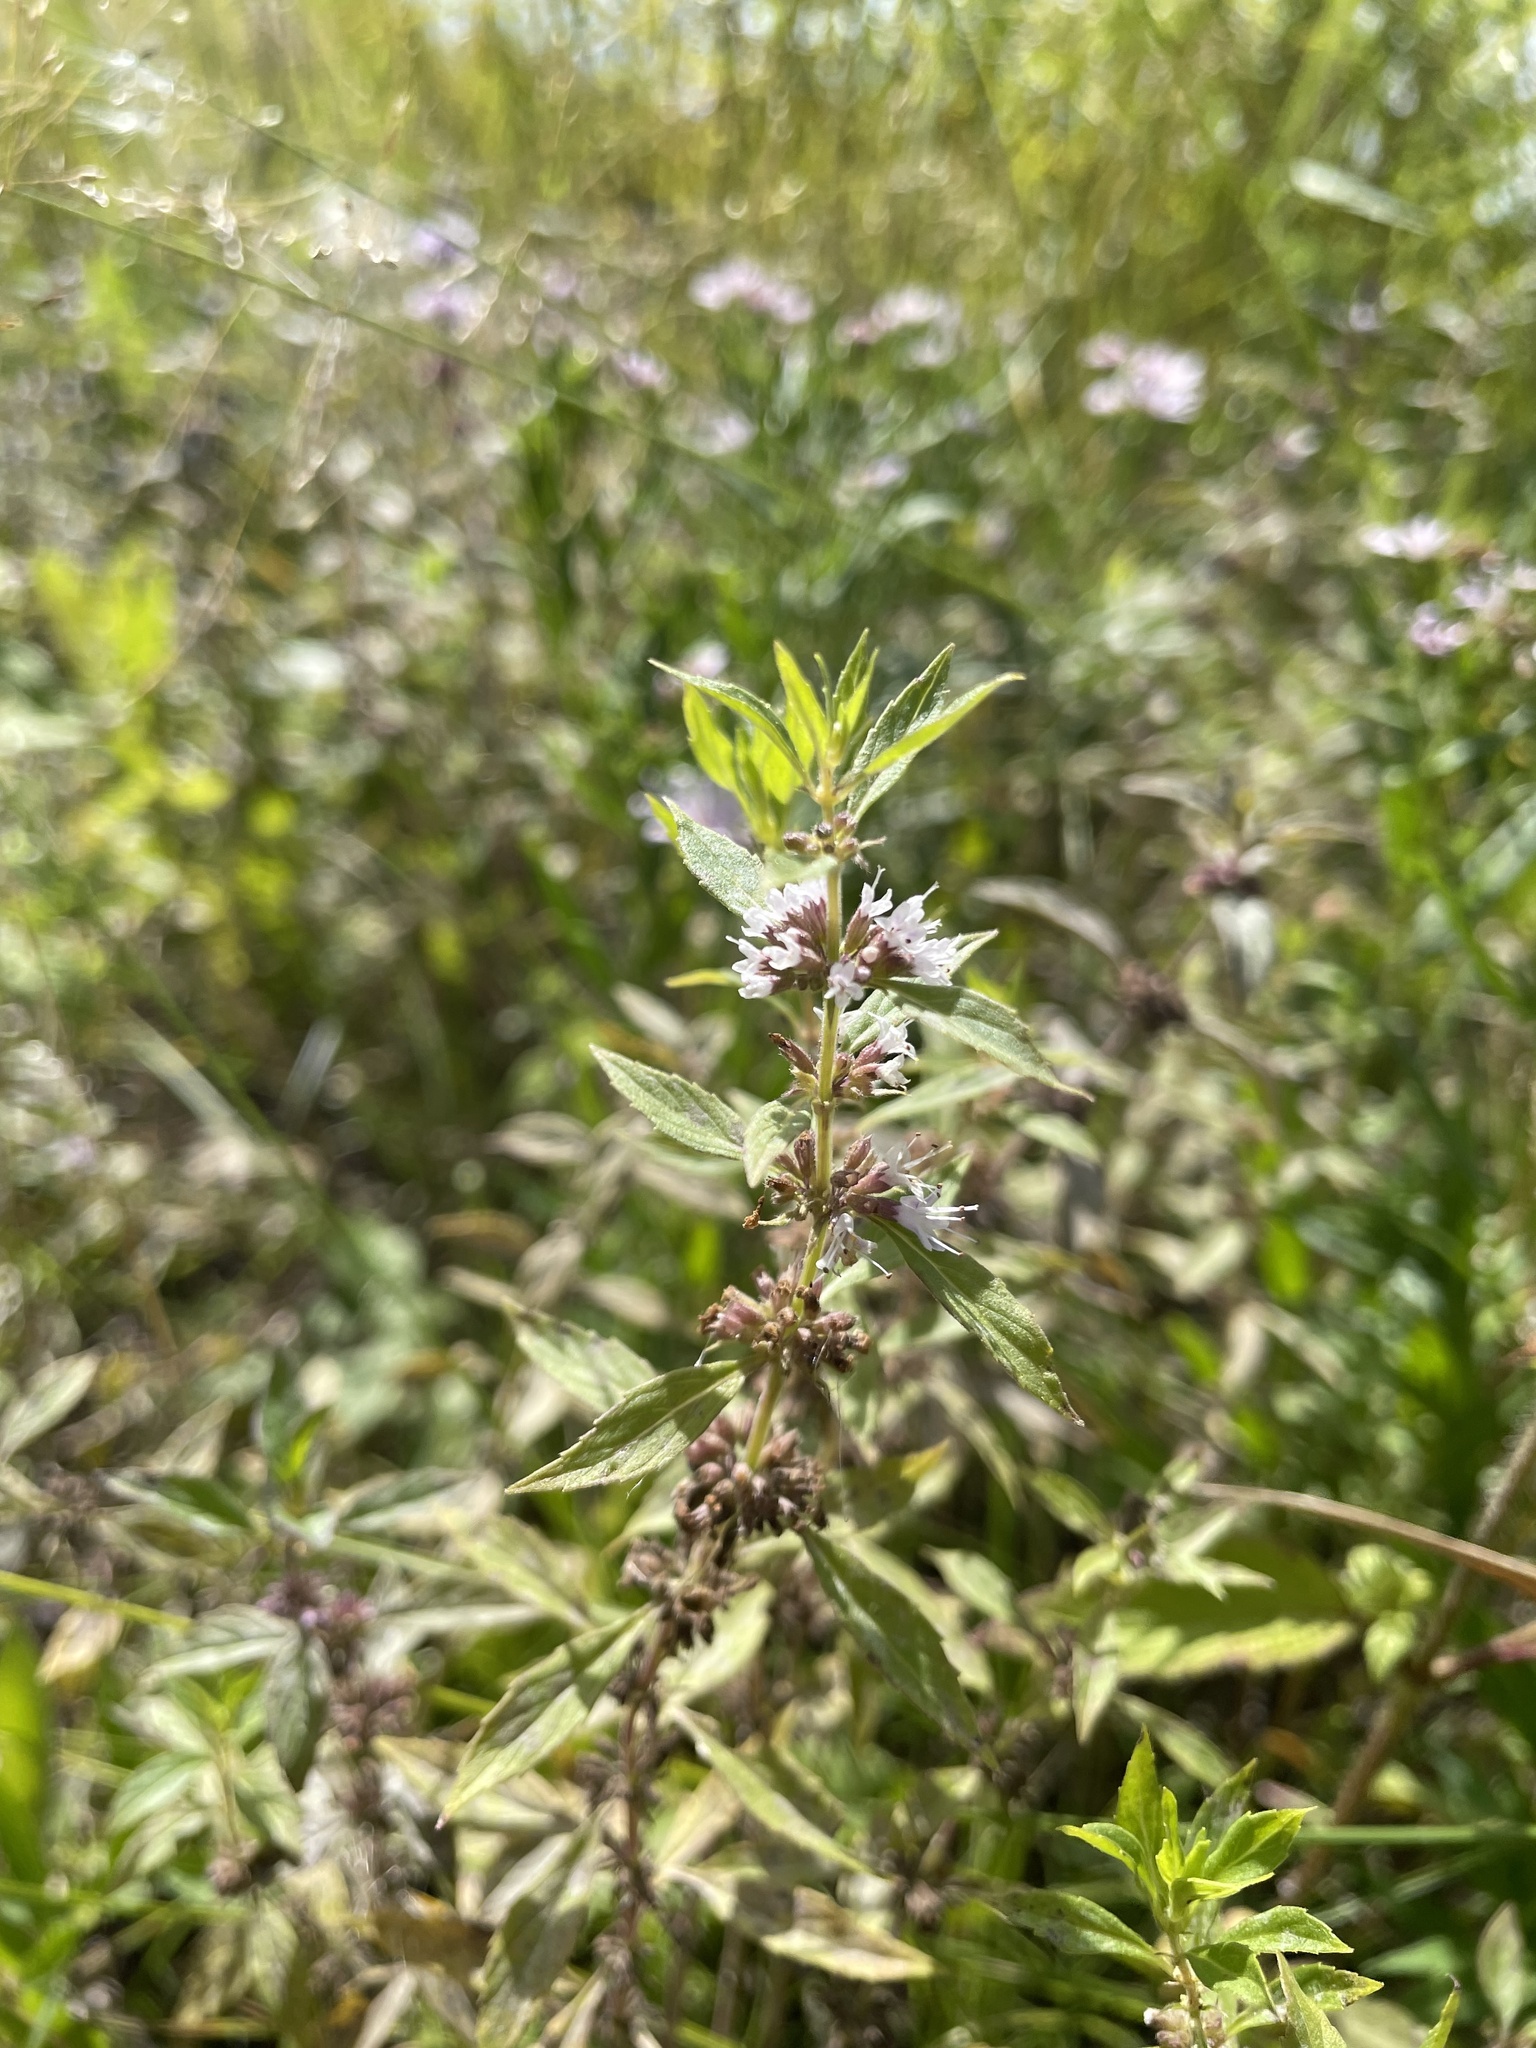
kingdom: Plantae
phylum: Tracheophyta
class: Magnoliopsida
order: Lamiales
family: Lamiaceae
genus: Mentha
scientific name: Mentha canadensis
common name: American corn mint
